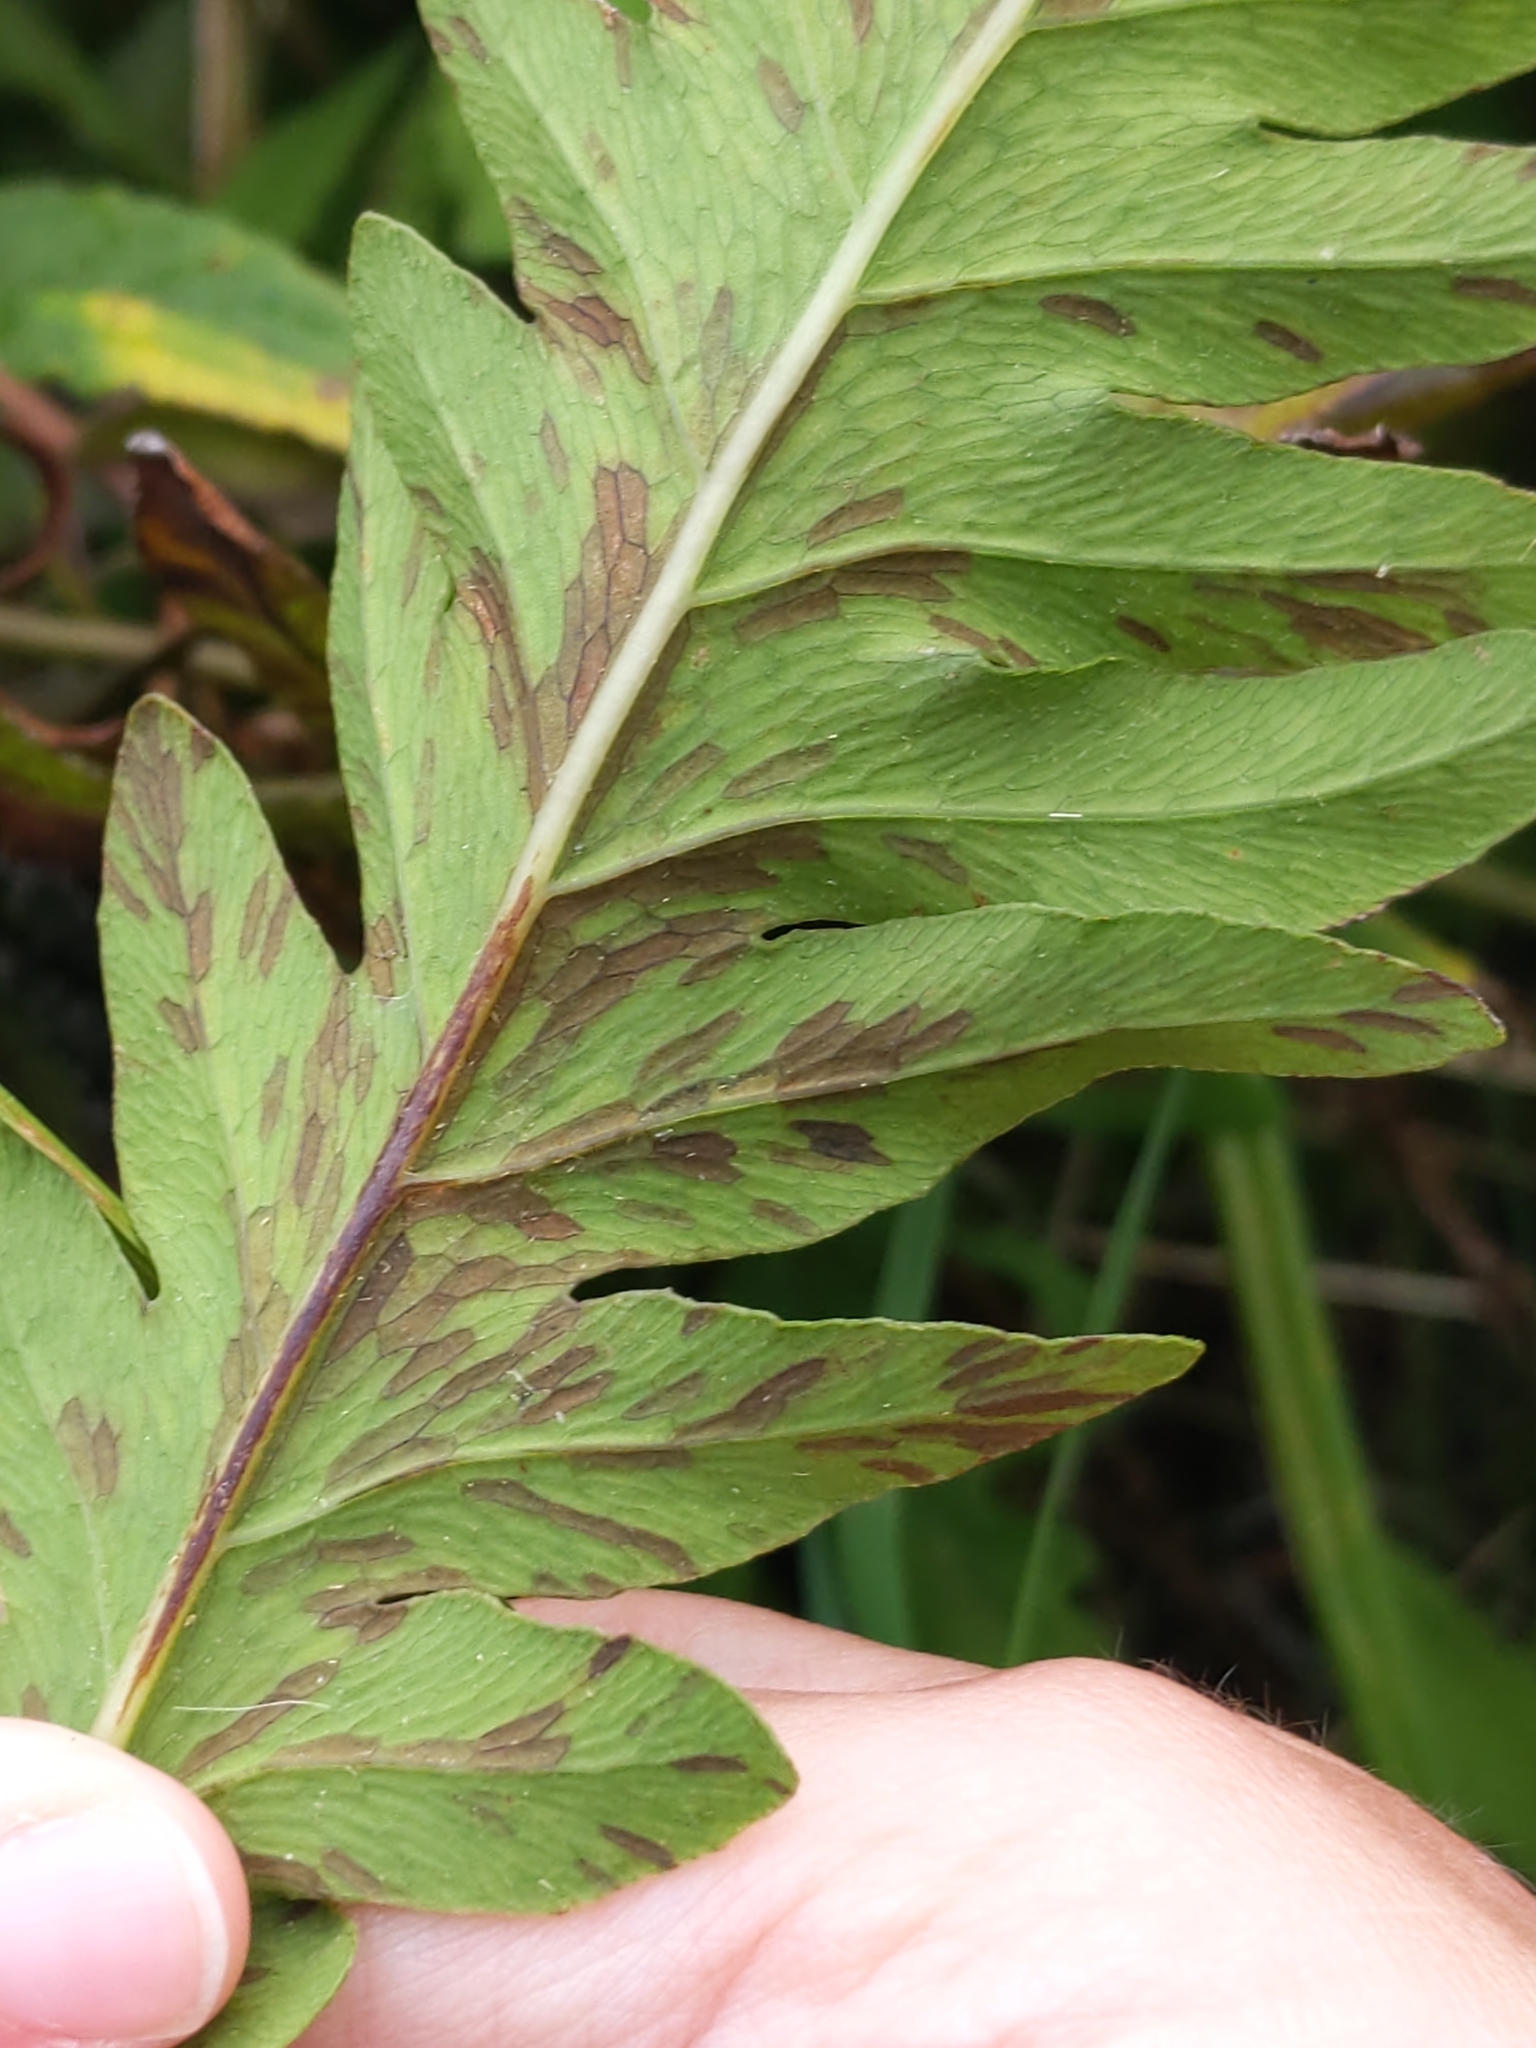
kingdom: Plantae
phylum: Tracheophyta
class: Polypodiopsida
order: Polypodiales
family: Onocleaceae
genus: Onoclea
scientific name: Onoclea sensibilis
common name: Sensitive fern
